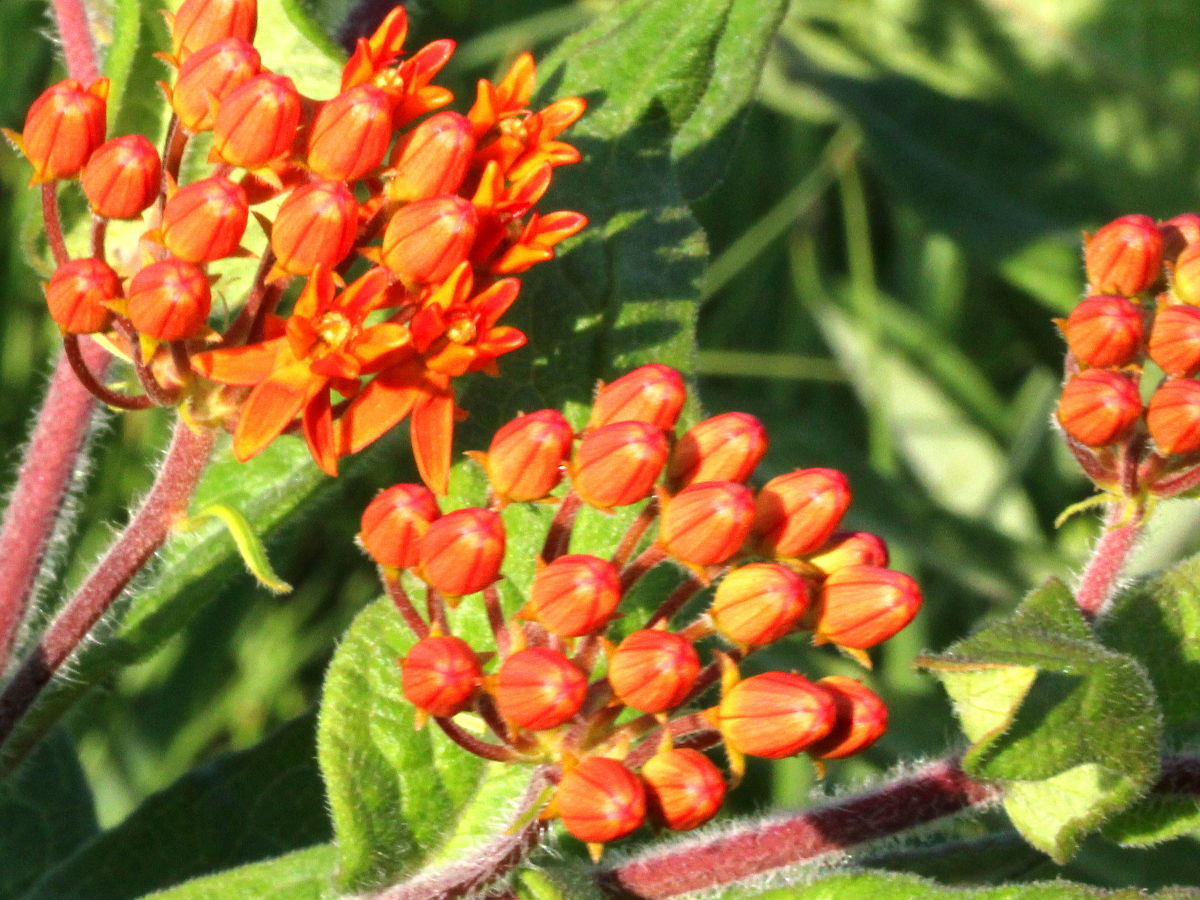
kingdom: Plantae
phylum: Tracheophyta
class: Magnoliopsida
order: Gentianales
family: Apocynaceae
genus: Asclepias
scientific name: Asclepias tuberosa
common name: Butterfly milkweed
